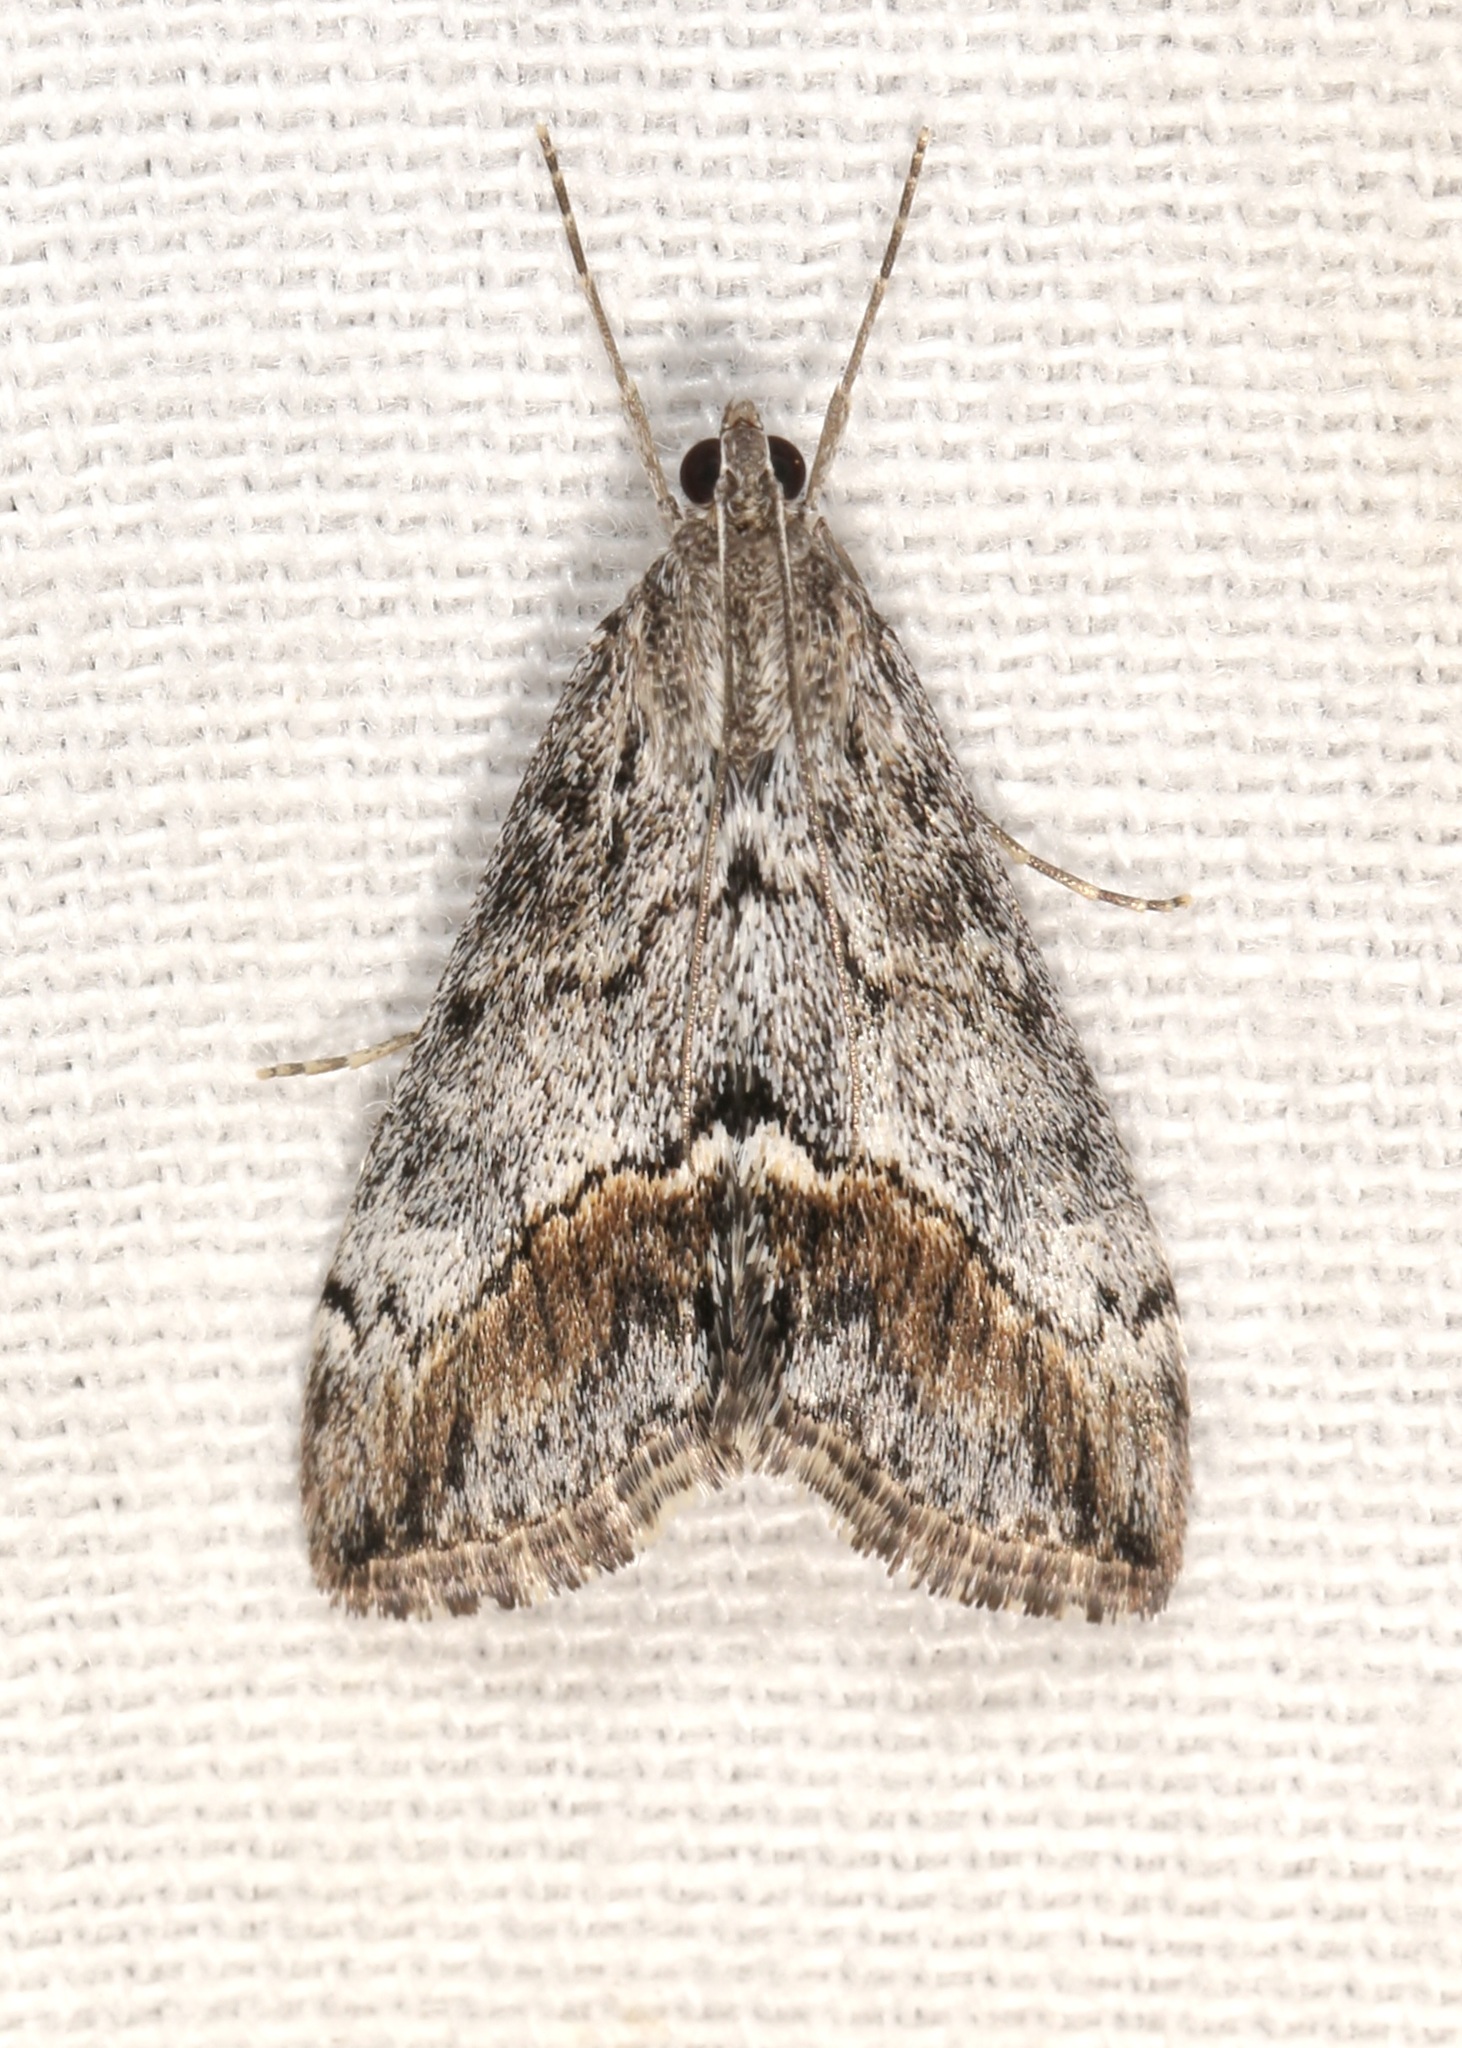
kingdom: Animalia
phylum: Arthropoda
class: Insecta
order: Lepidoptera
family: Crambidae
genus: Evergestis
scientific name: Evergestis subterminalis
